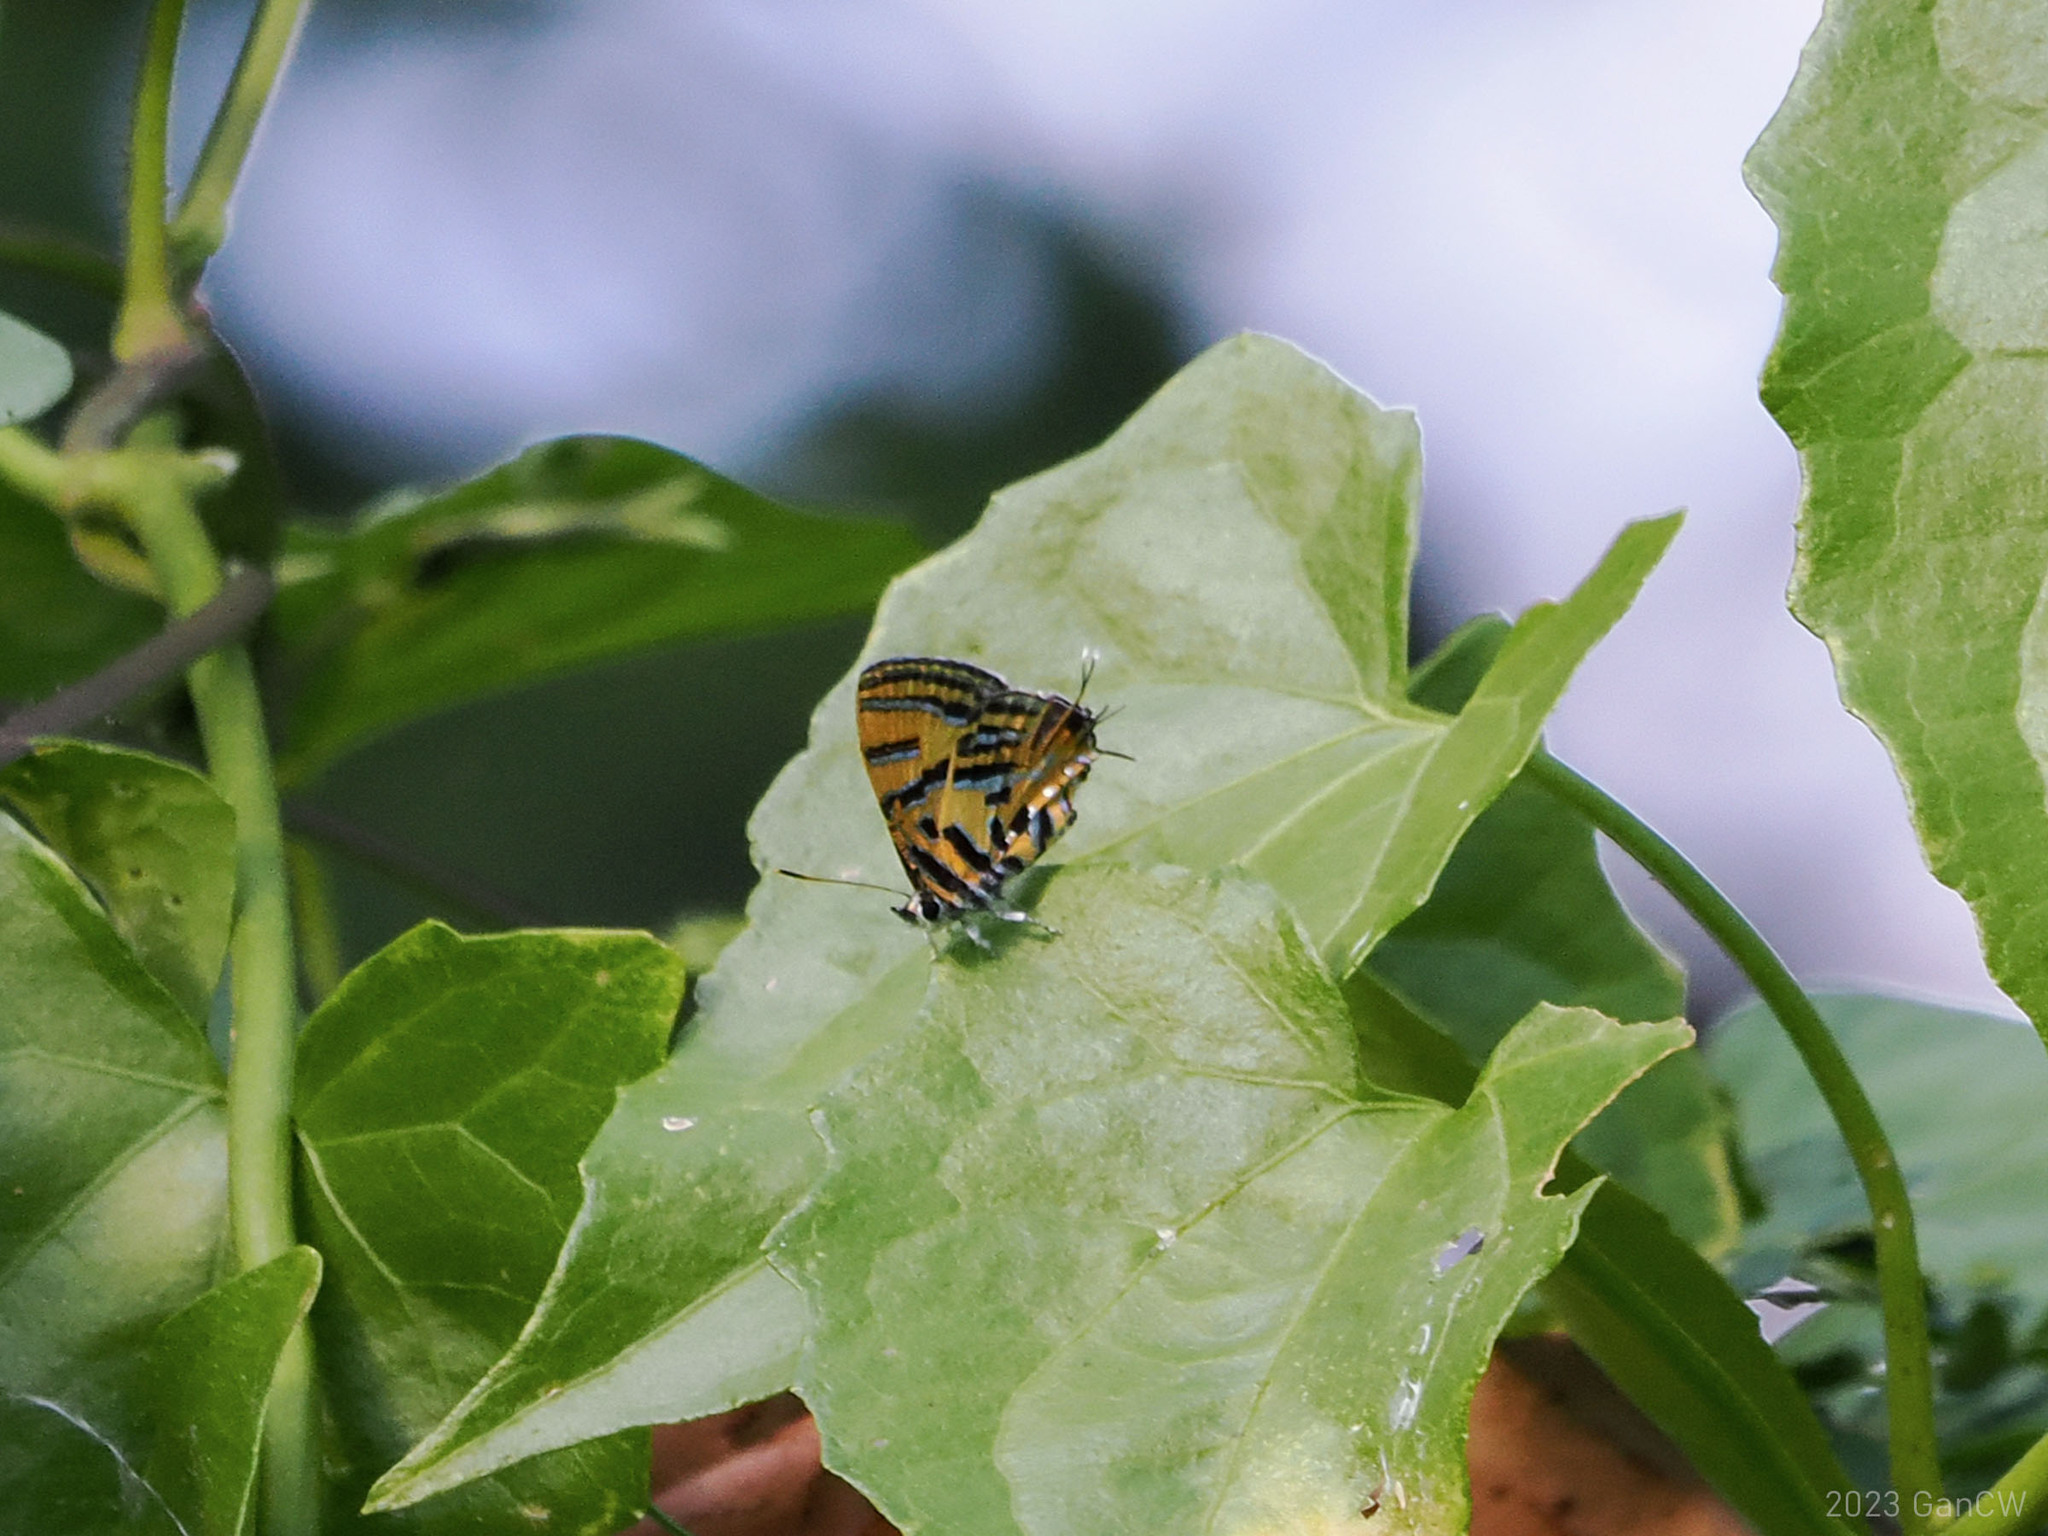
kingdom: Animalia
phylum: Arthropoda
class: Insecta
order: Lepidoptera
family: Lycaenidae
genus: Catapaecilma
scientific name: Catapaecilma subochrea
